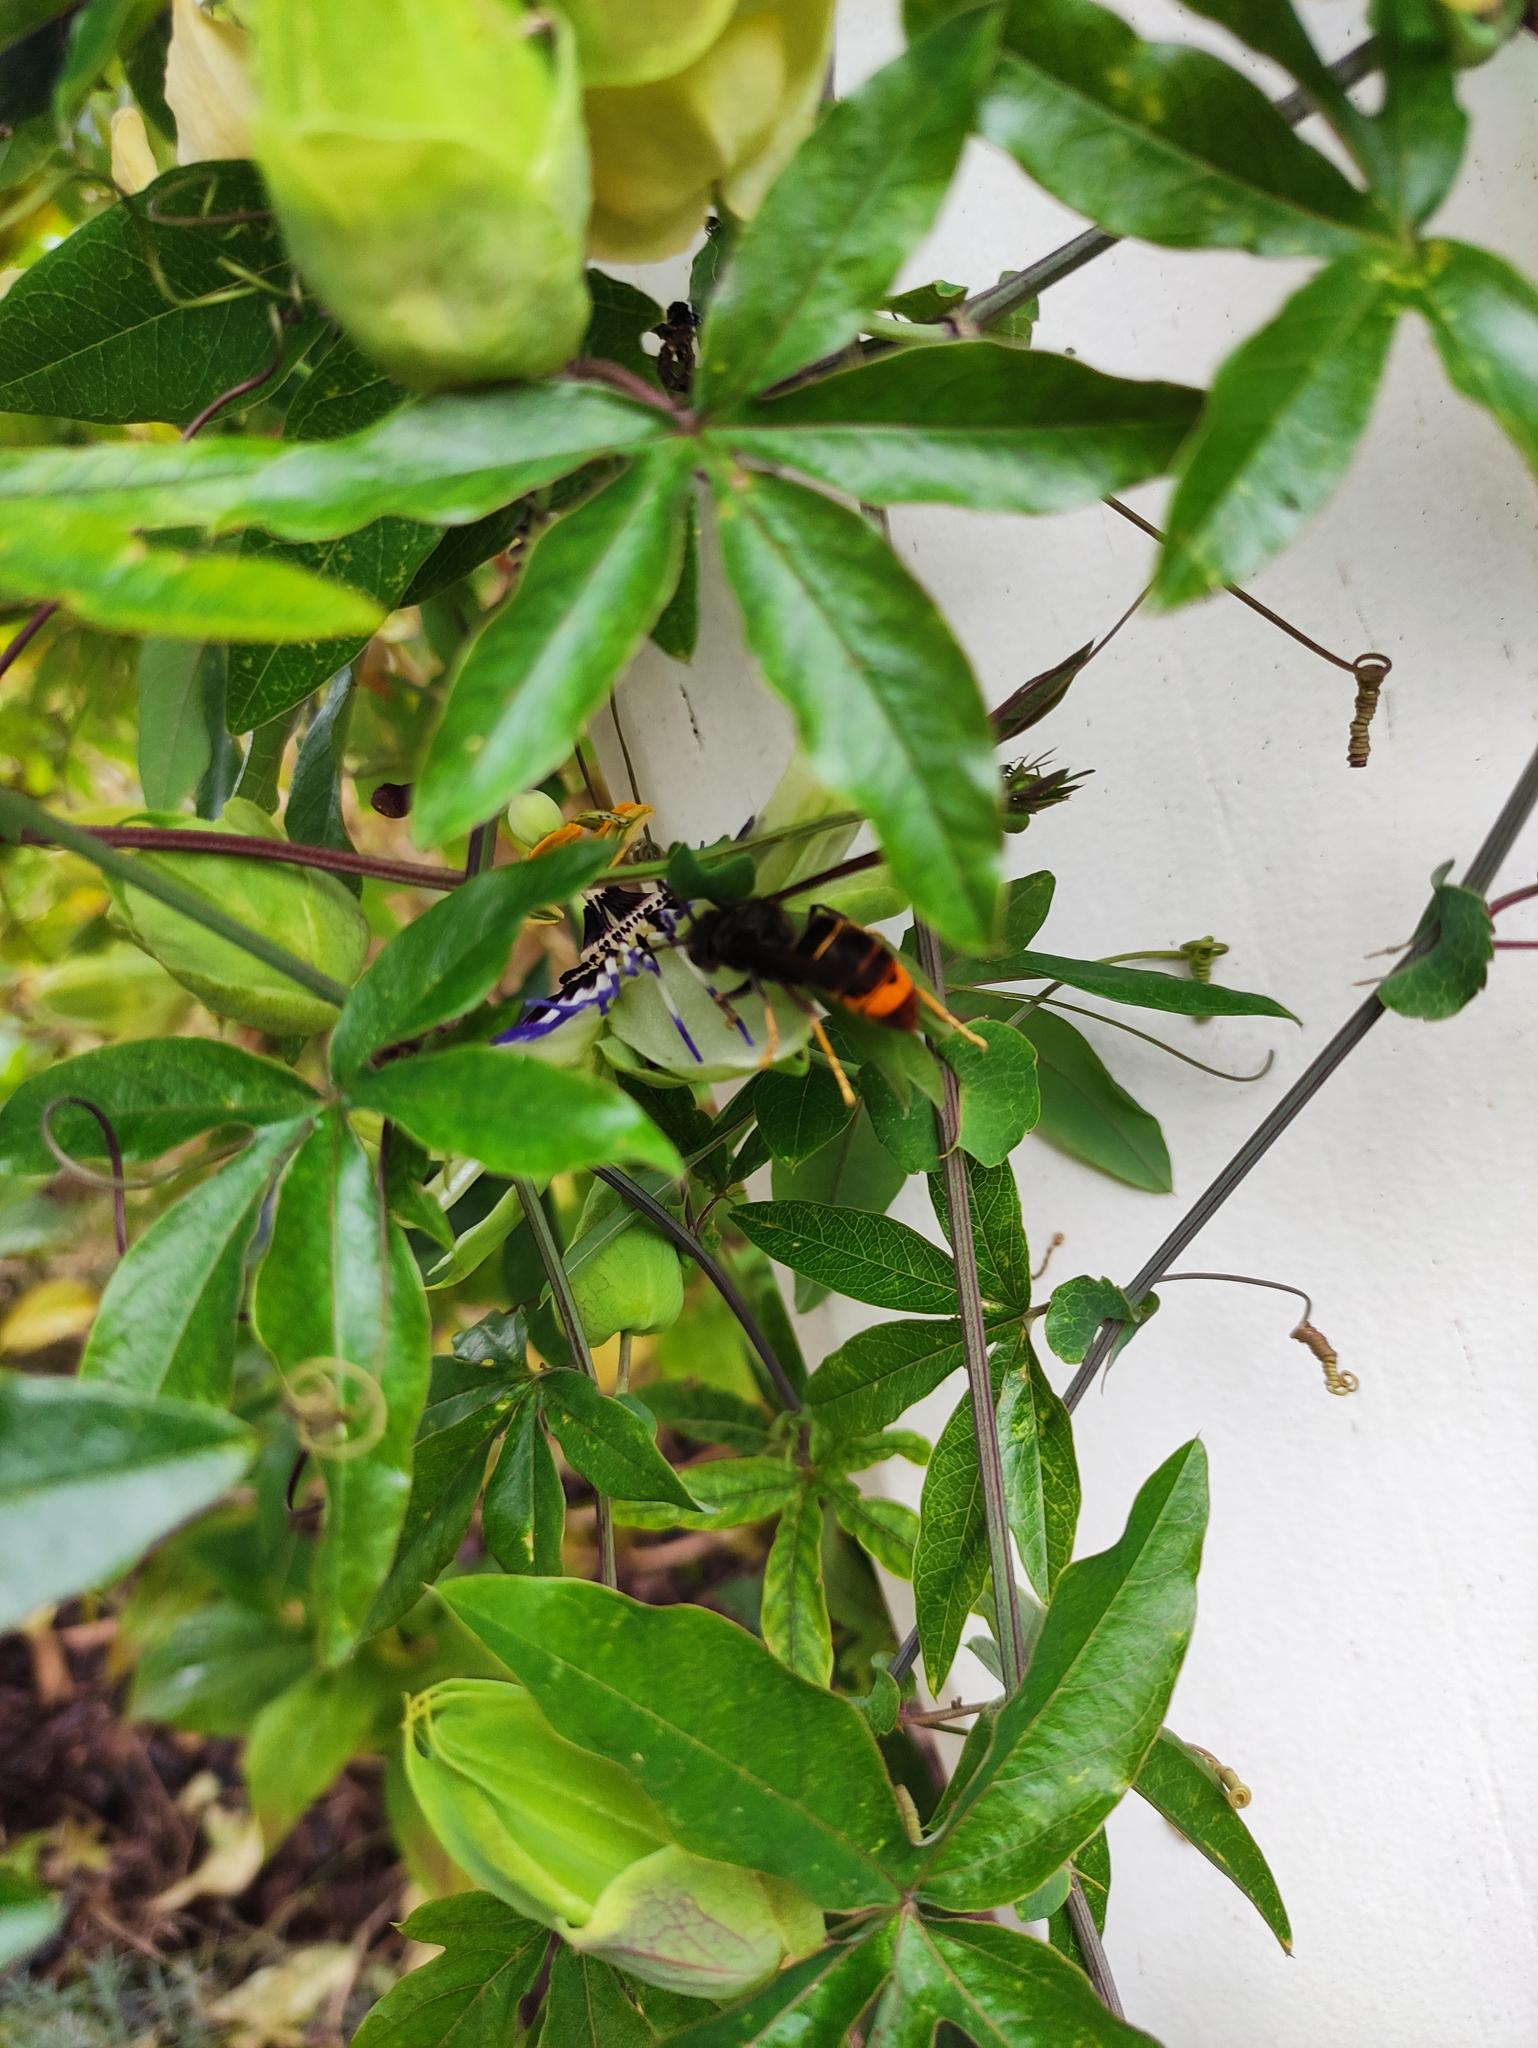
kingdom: Animalia
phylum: Arthropoda
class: Insecta
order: Hymenoptera
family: Vespidae
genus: Vespa
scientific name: Vespa velutina
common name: Asian hornet
